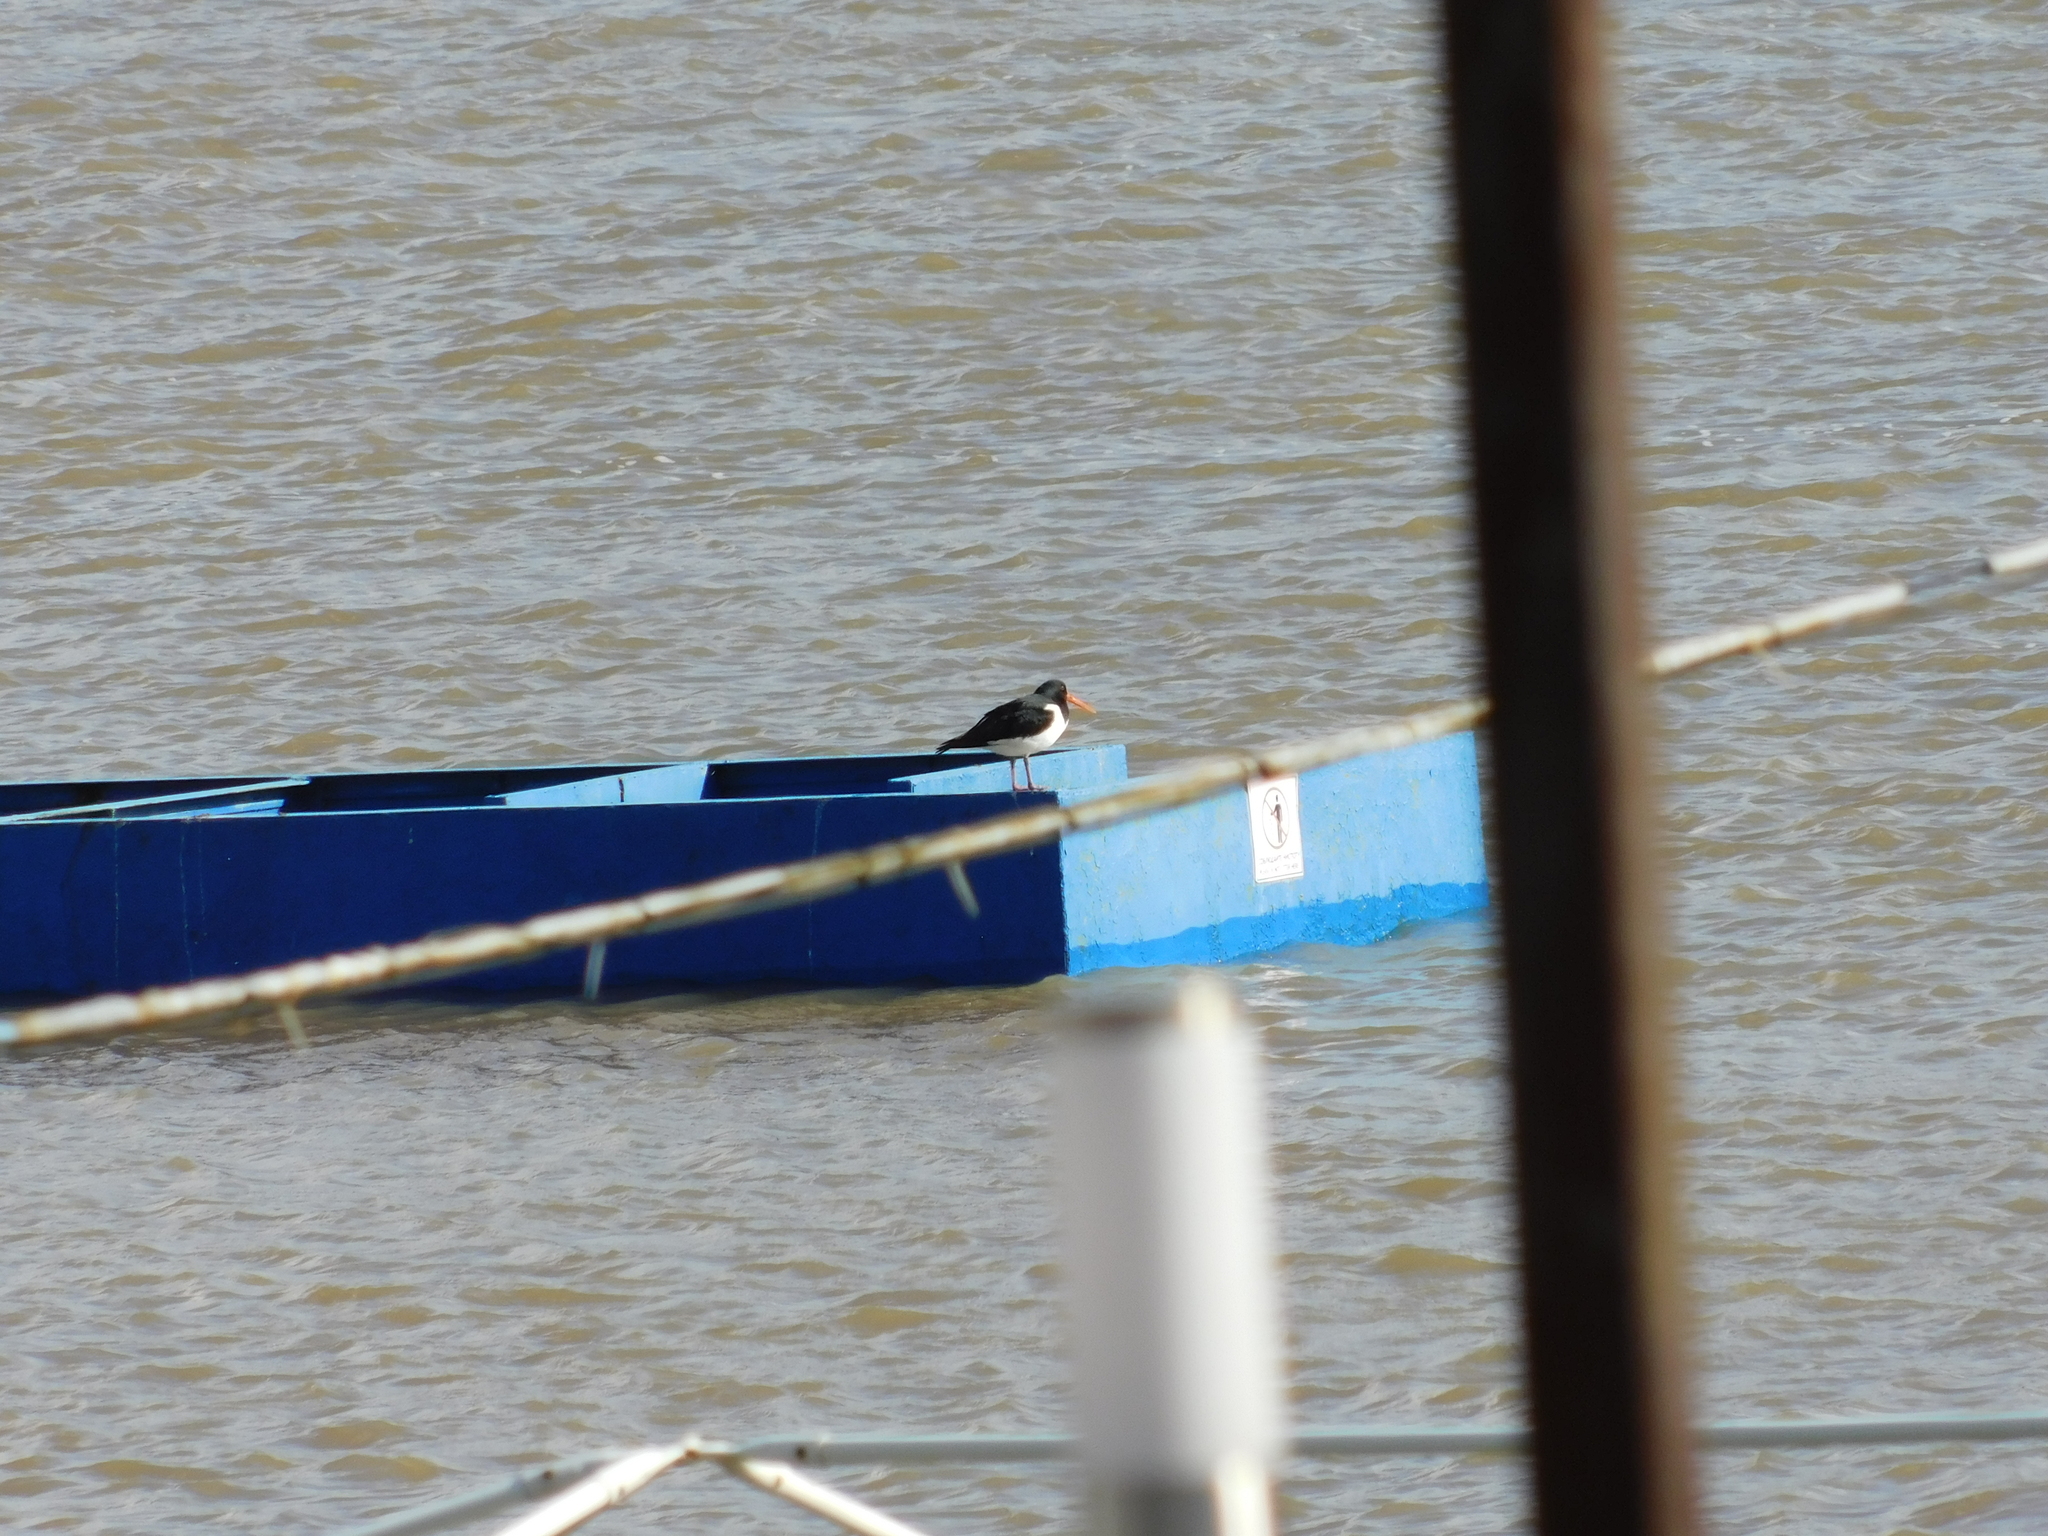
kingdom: Animalia
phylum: Chordata
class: Aves
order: Charadriiformes
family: Haematopodidae
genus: Haematopus
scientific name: Haematopus ostralegus
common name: Eurasian oystercatcher
